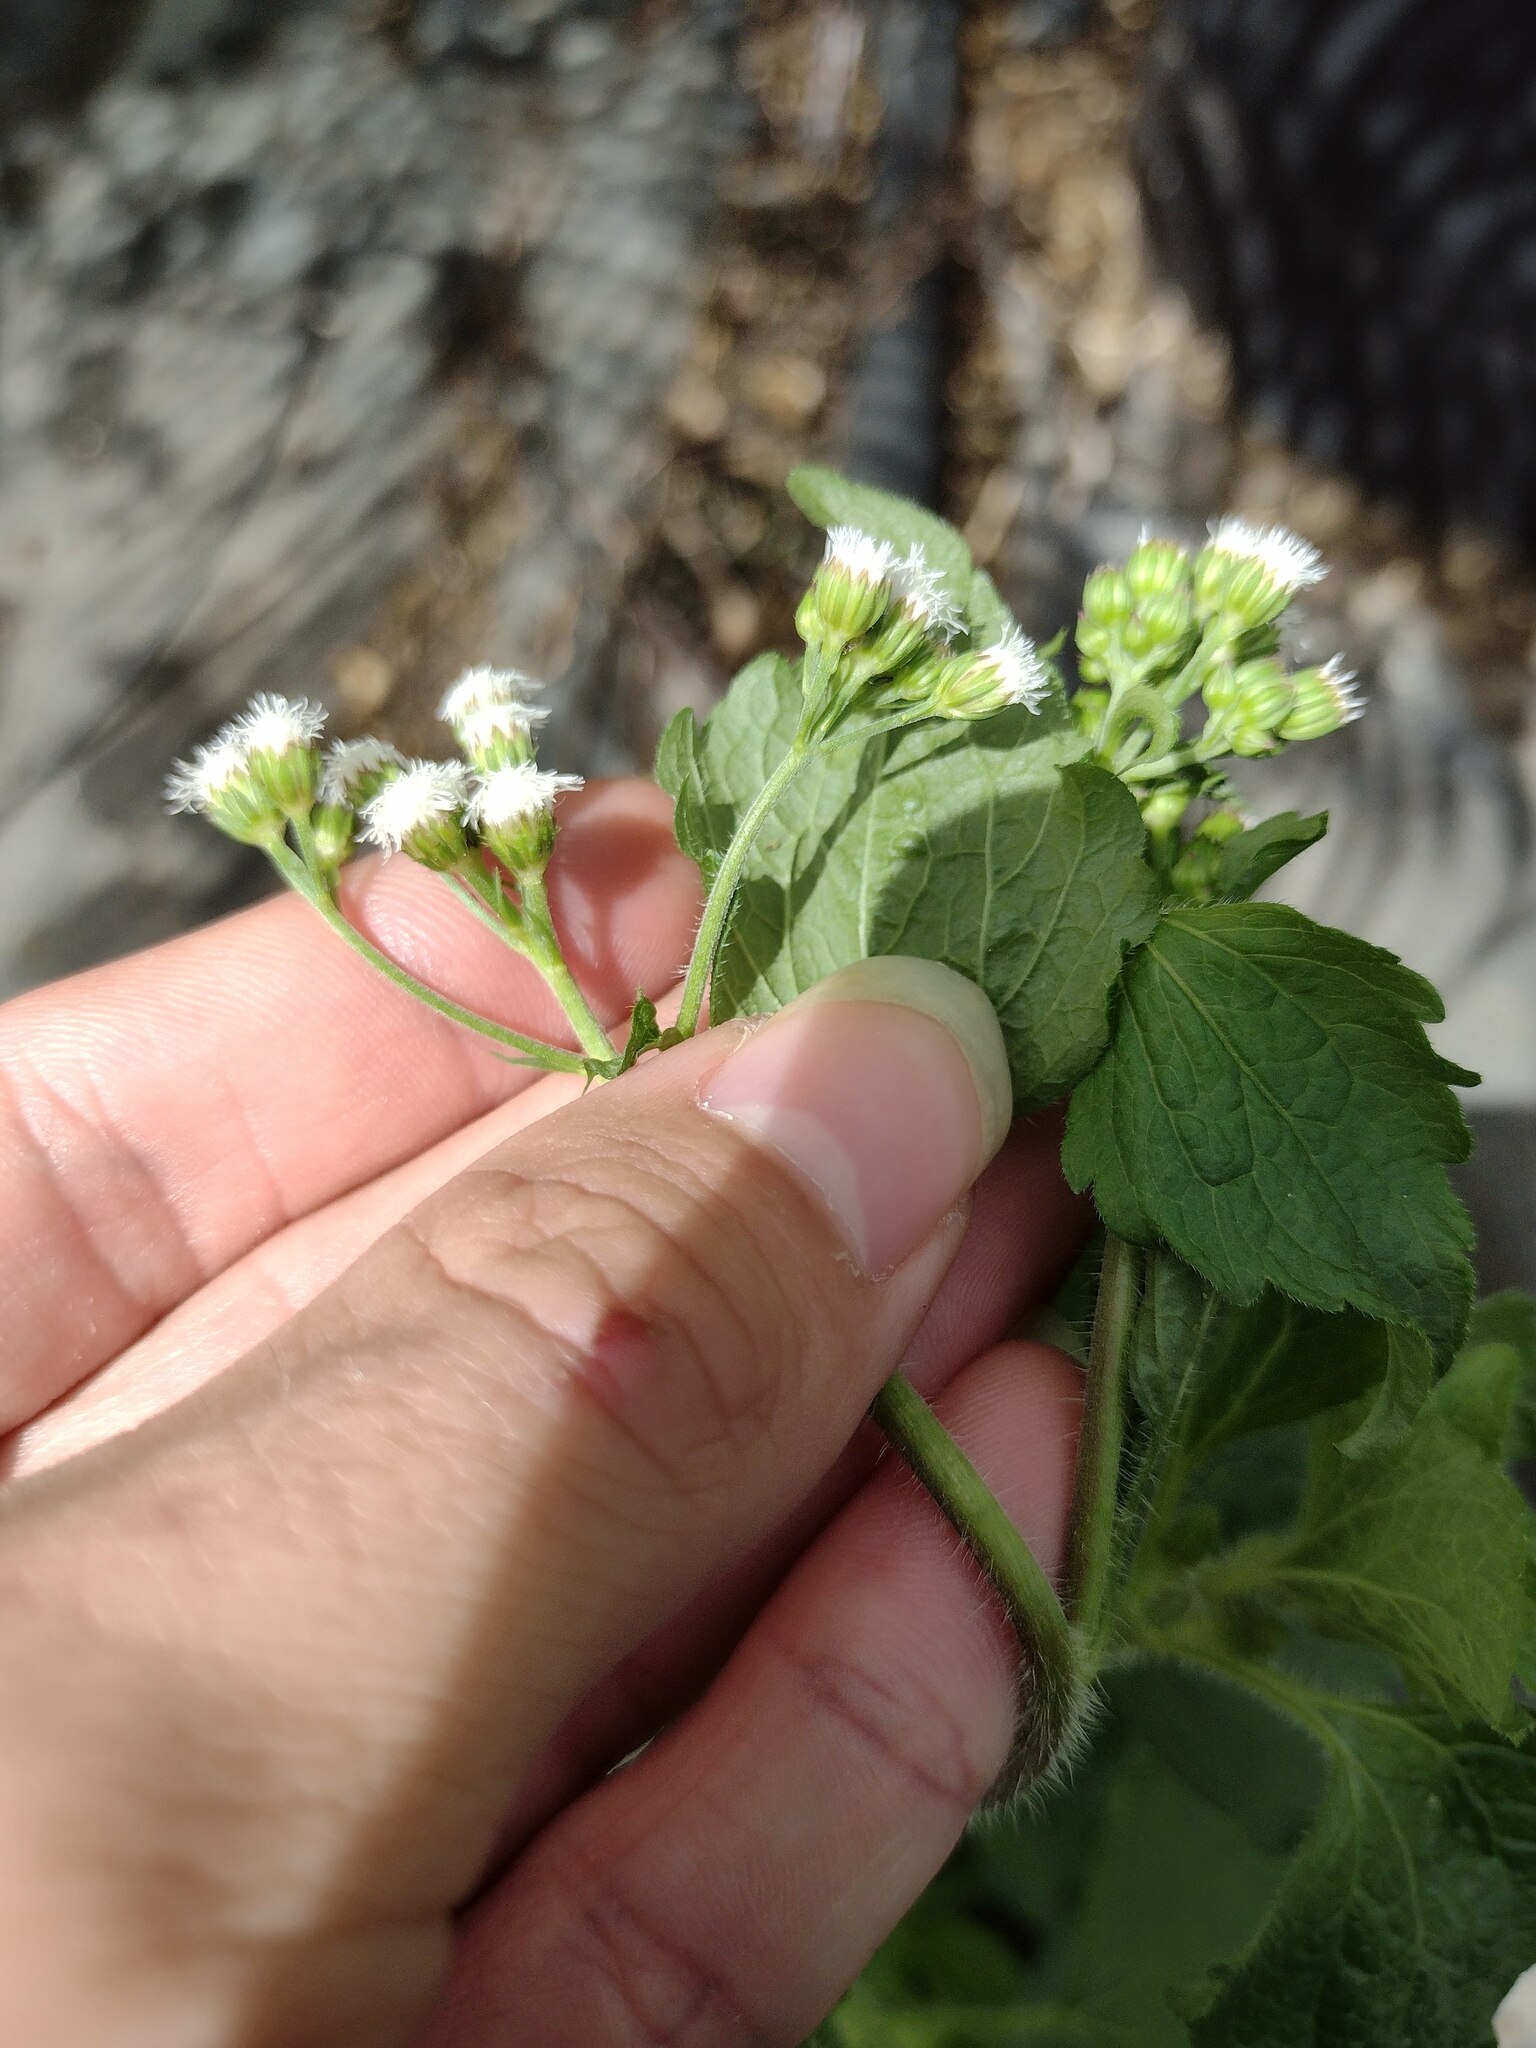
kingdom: Plantae
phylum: Tracheophyta
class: Magnoliopsida
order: Asterales
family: Asteraceae
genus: Ageratum
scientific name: Ageratum conyzoides
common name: Tropical whiteweed
